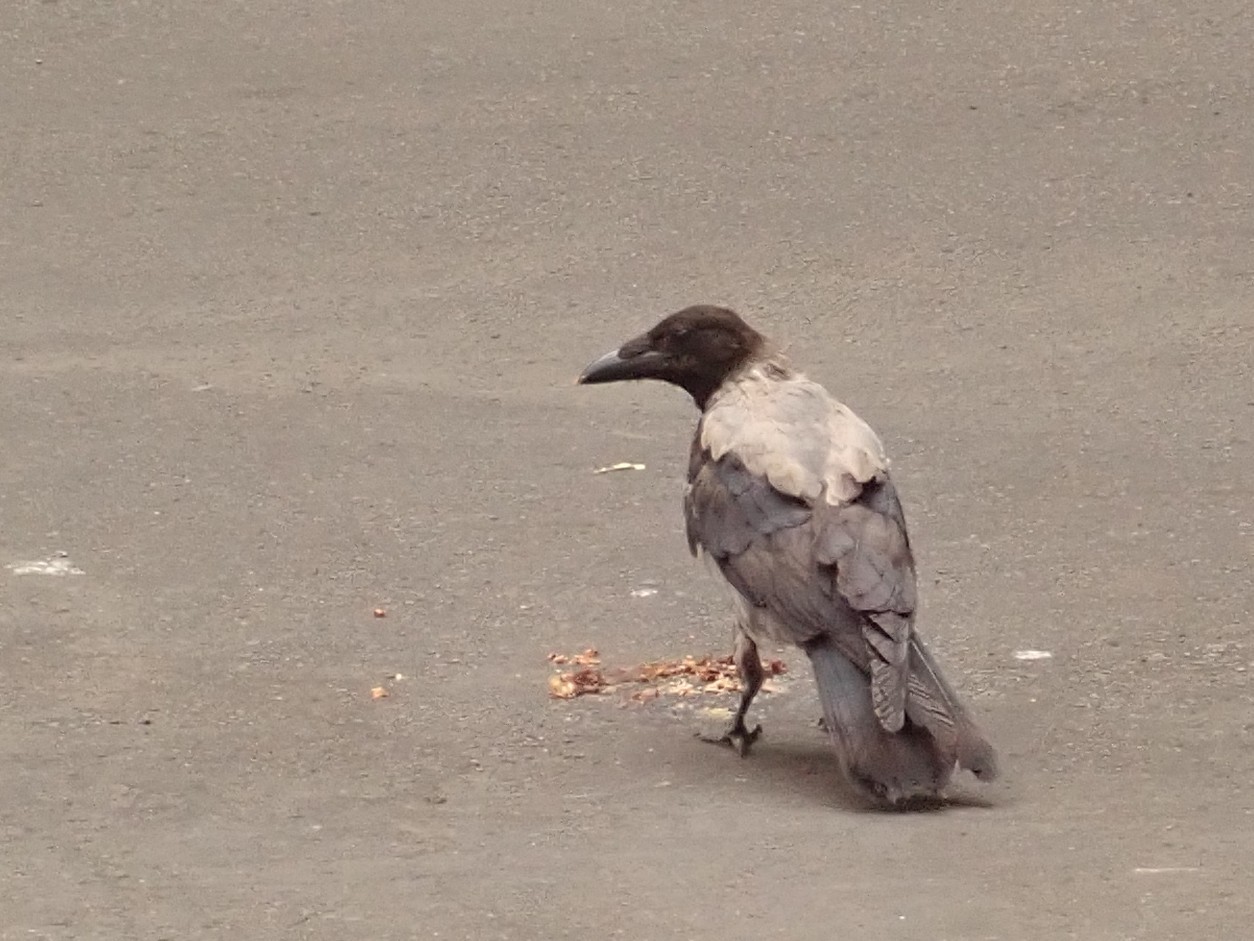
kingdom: Animalia
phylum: Chordata
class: Aves
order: Passeriformes
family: Corvidae
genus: Corvus
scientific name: Corvus cornix
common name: Hooded crow
